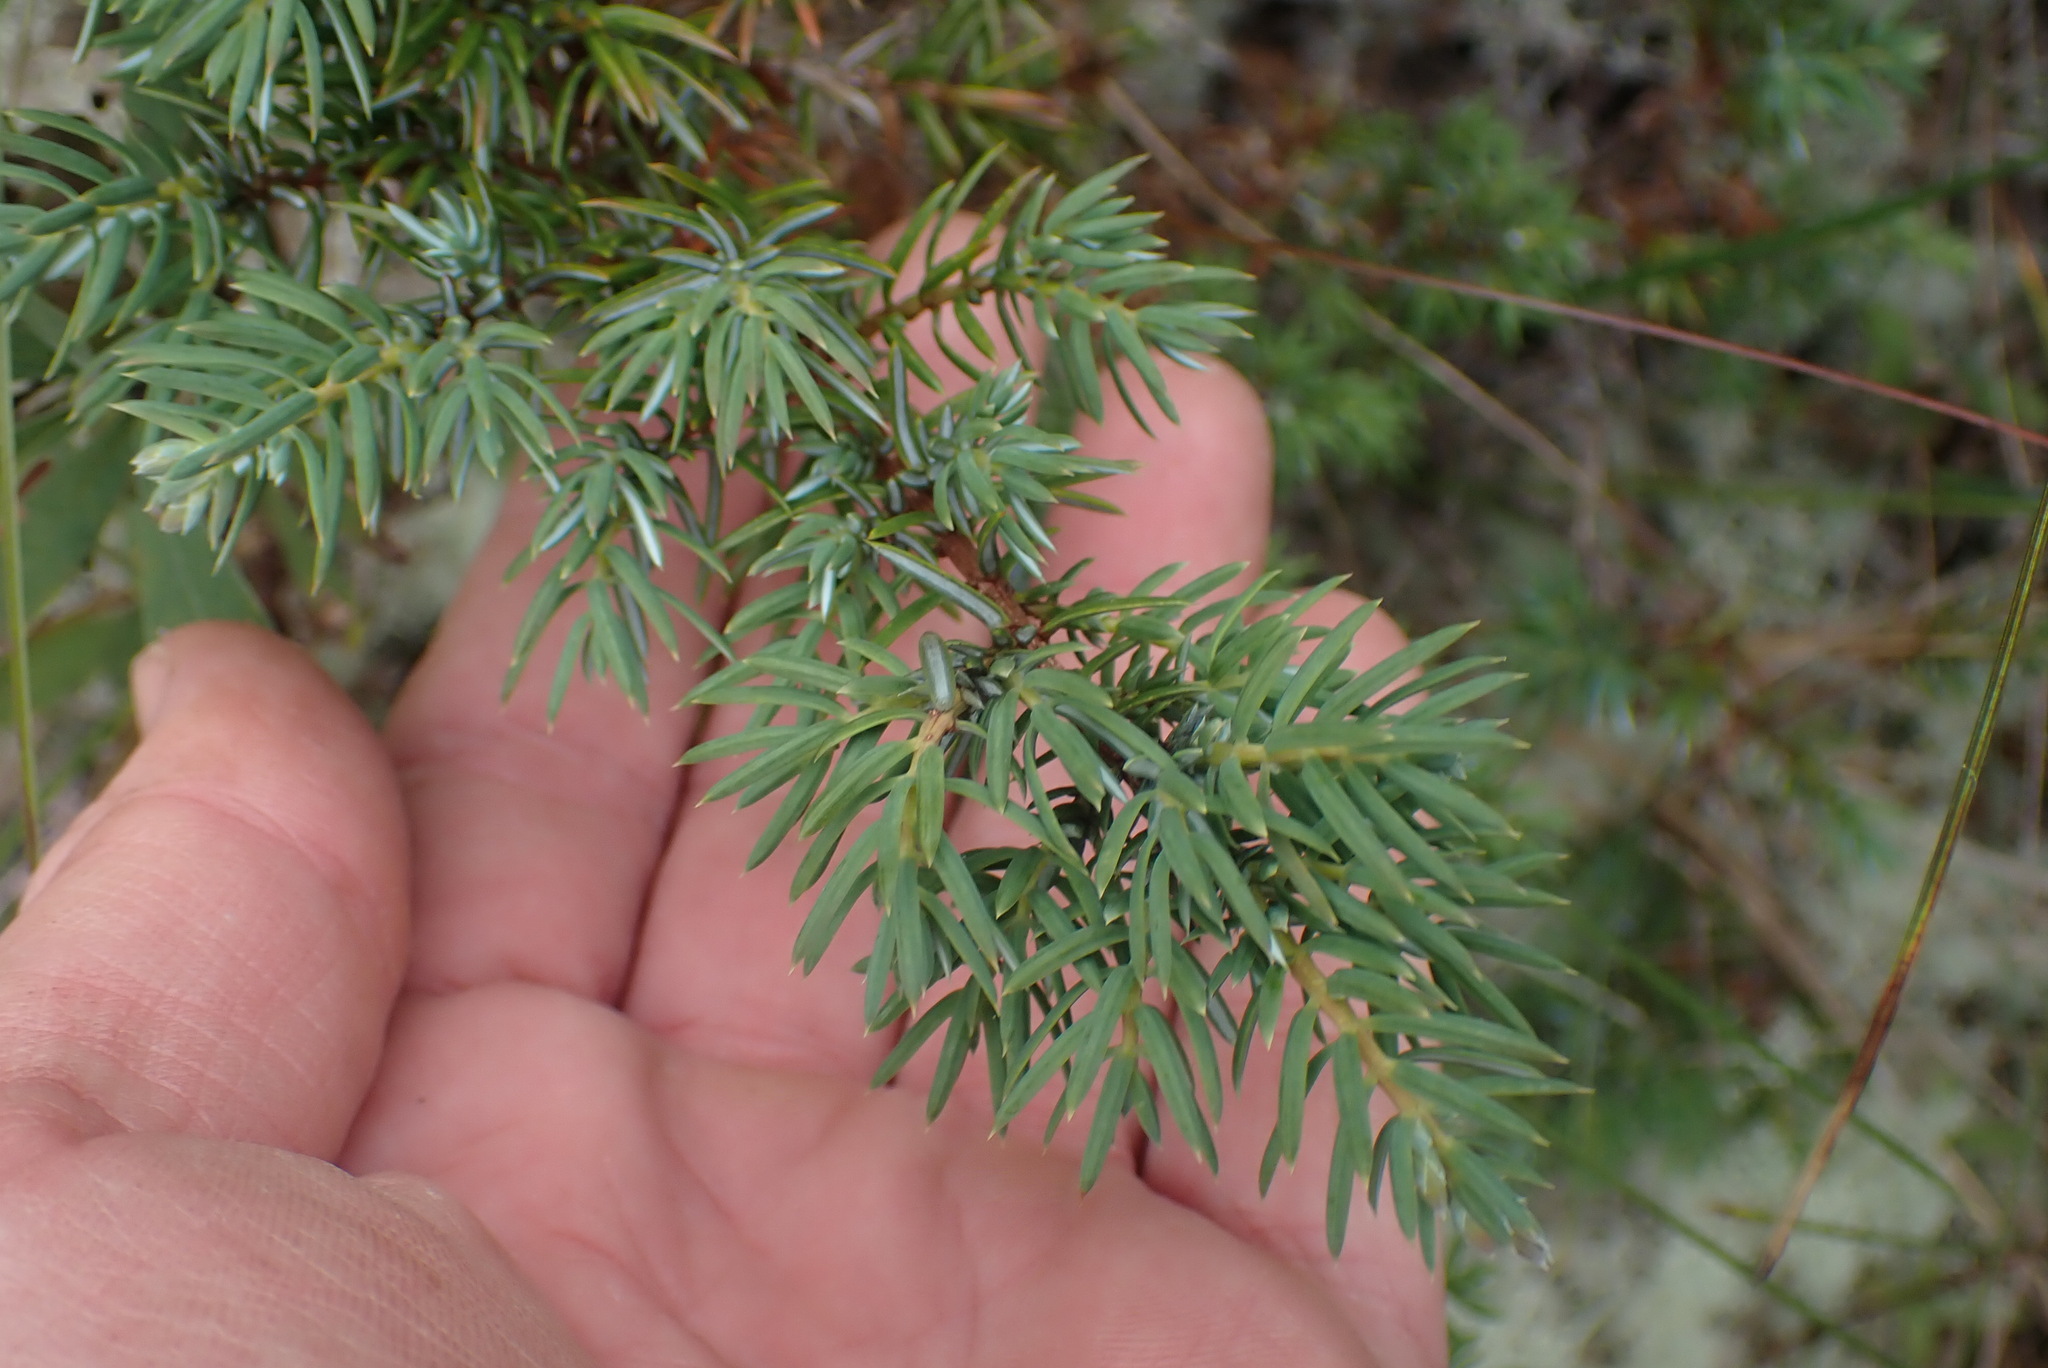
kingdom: Plantae
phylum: Tracheophyta
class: Pinopsida
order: Pinales
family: Cupressaceae
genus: Juniperus
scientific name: Juniperus communis
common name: Common juniper
